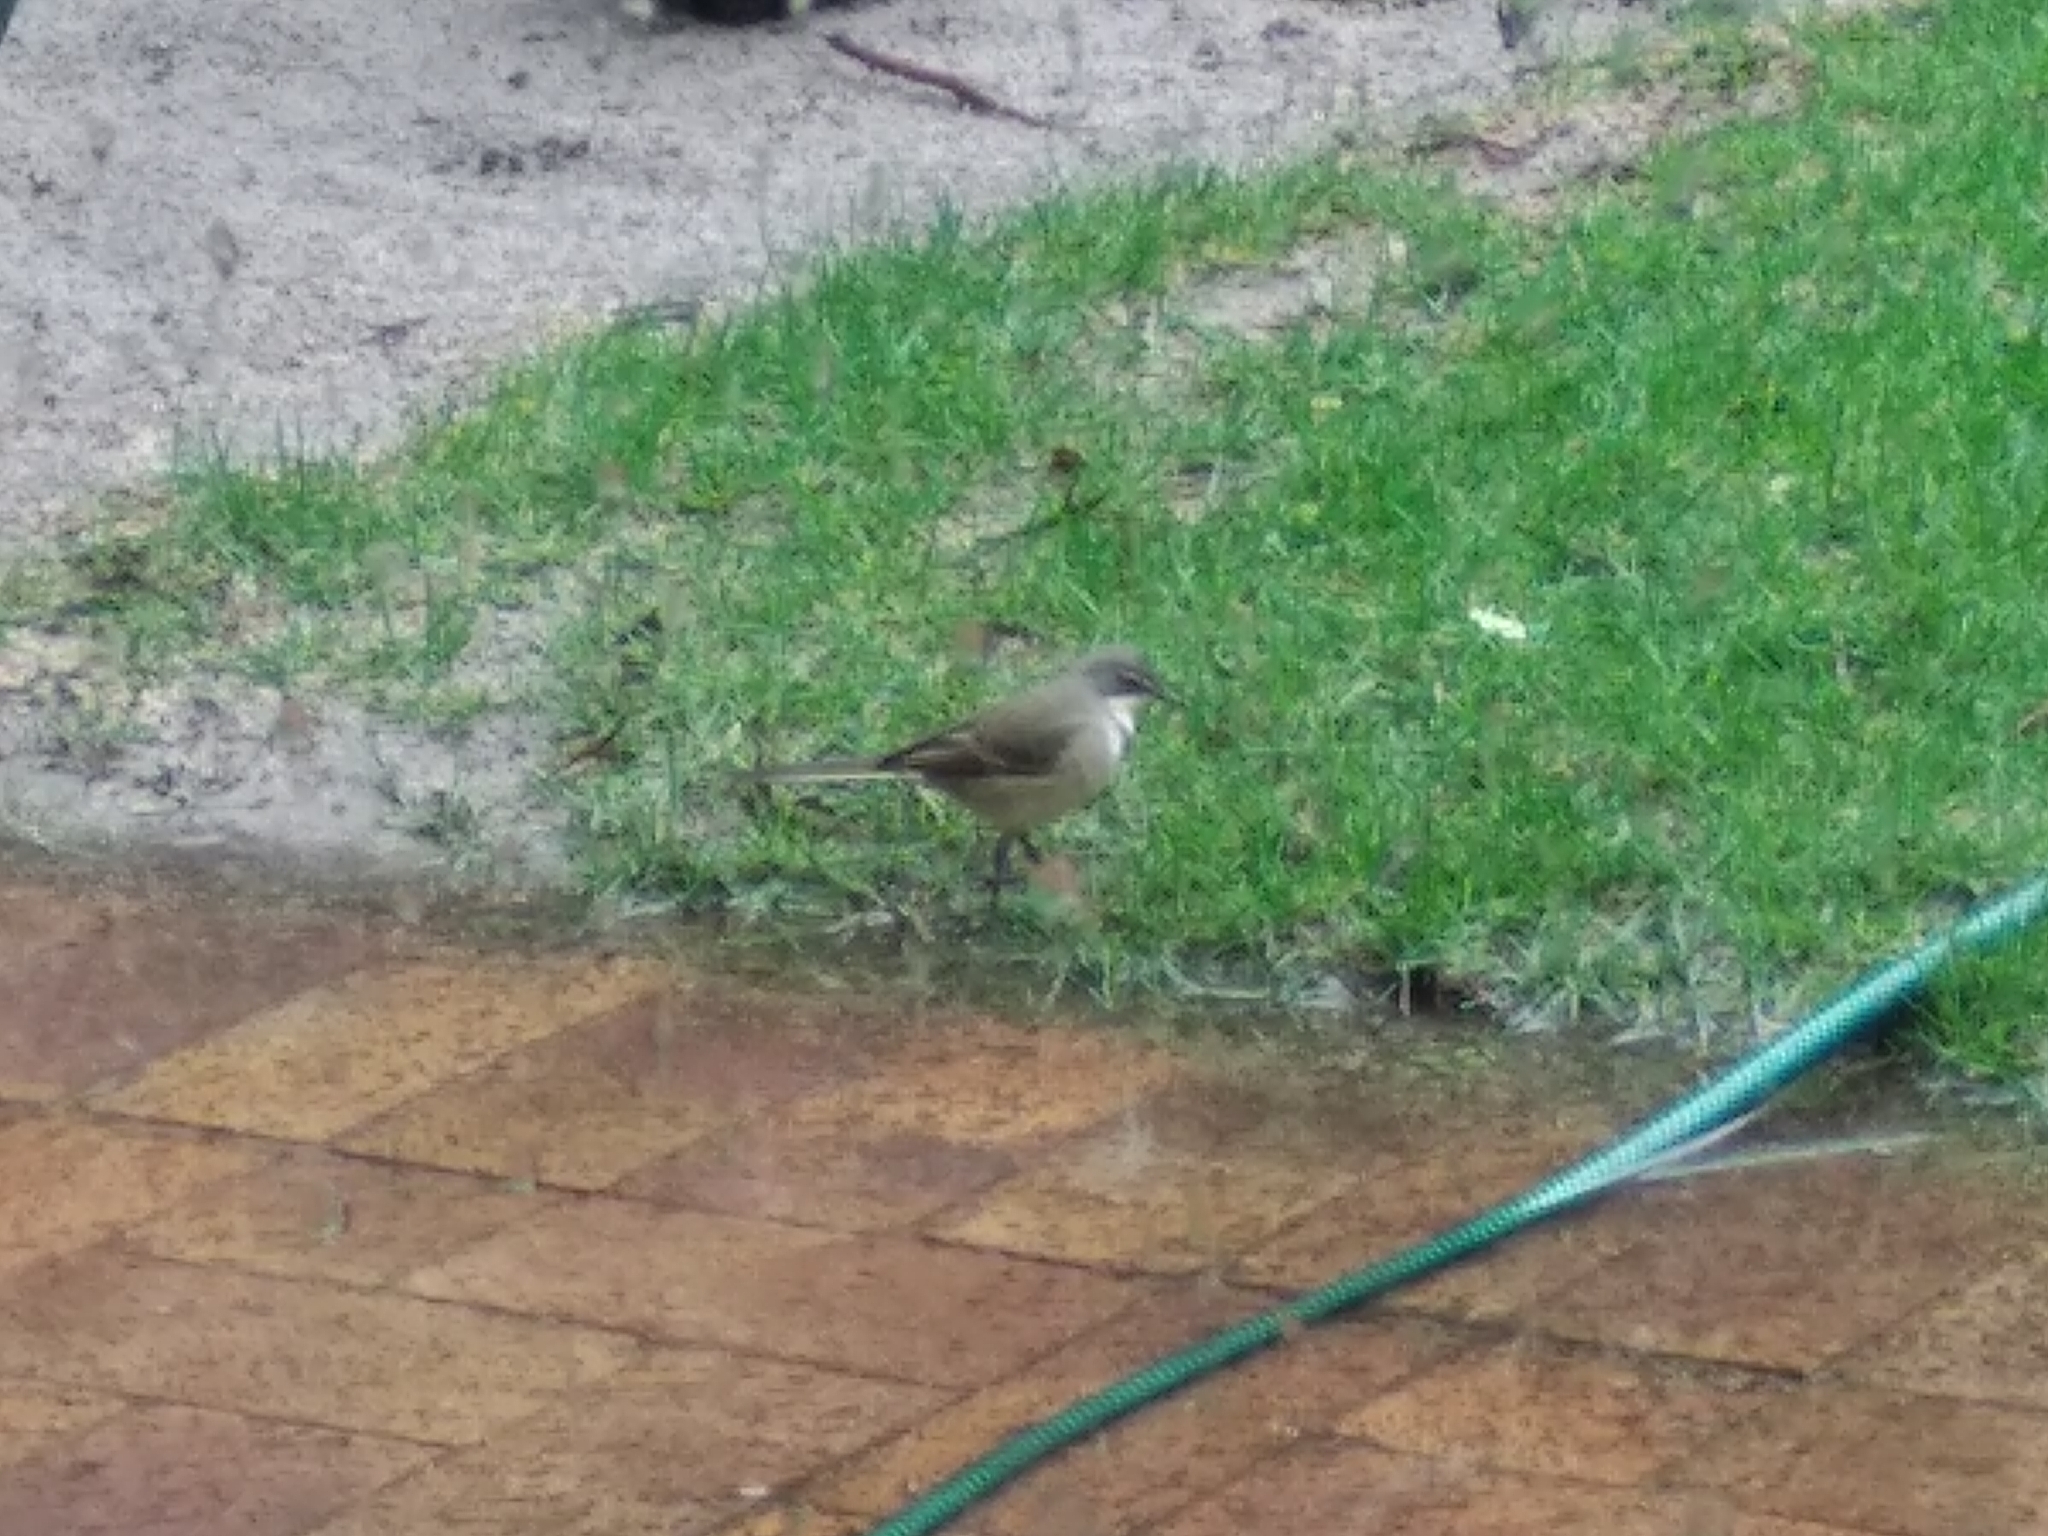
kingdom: Animalia
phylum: Chordata
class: Aves
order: Passeriformes
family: Motacillidae
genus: Motacilla
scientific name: Motacilla capensis
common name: Cape wagtail
